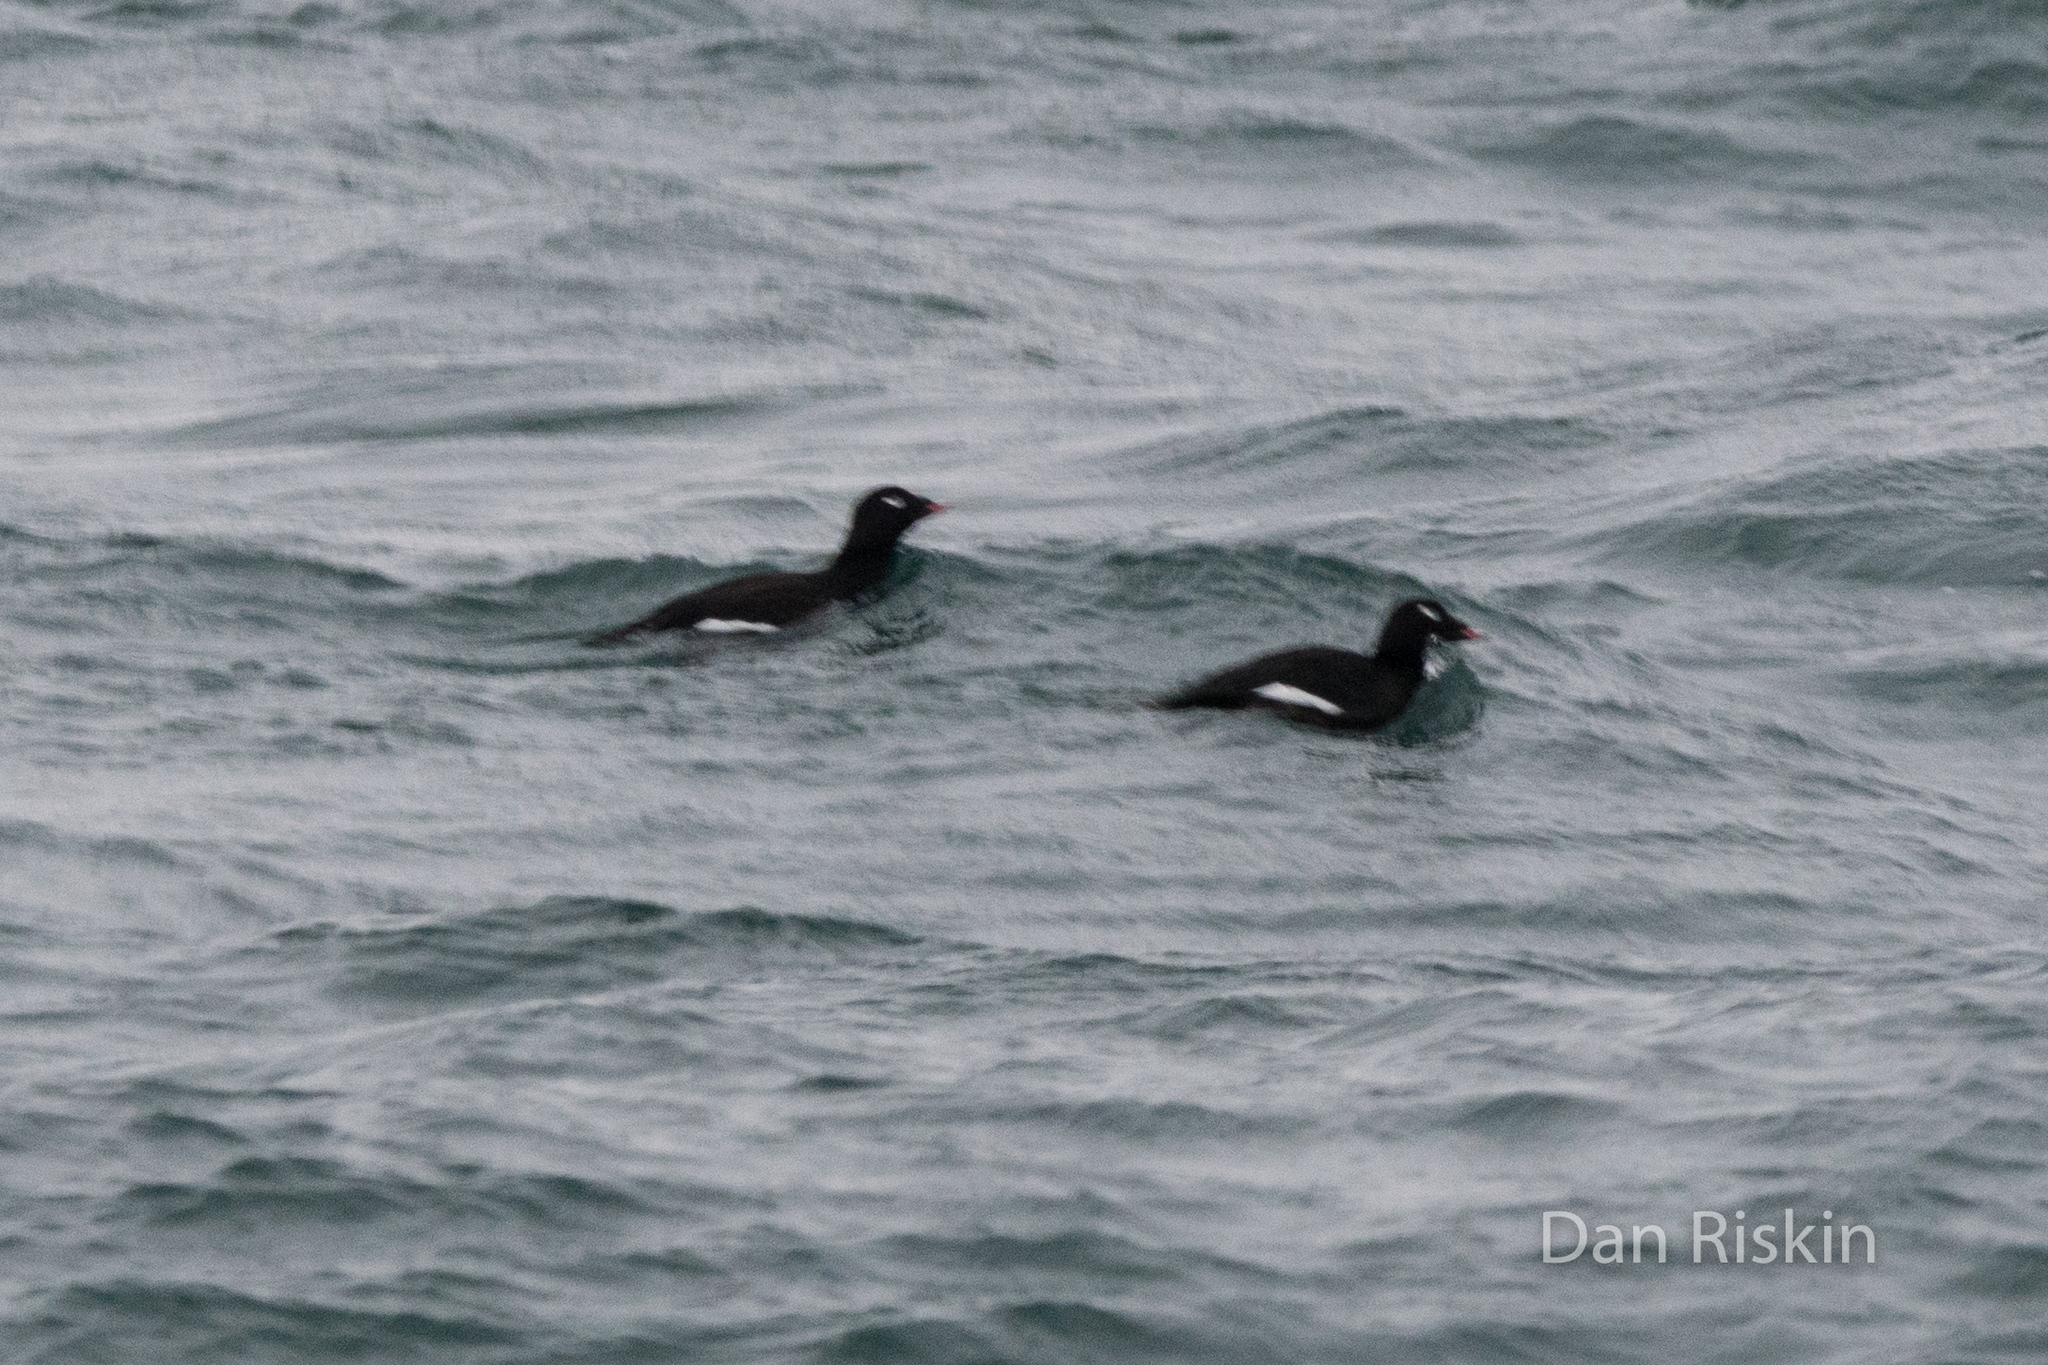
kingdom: Animalia
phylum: Chordata
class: Aves
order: Anseriformes
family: Anatidae
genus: Melanitta
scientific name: Melanitta deglandi
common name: White-winged scoter
